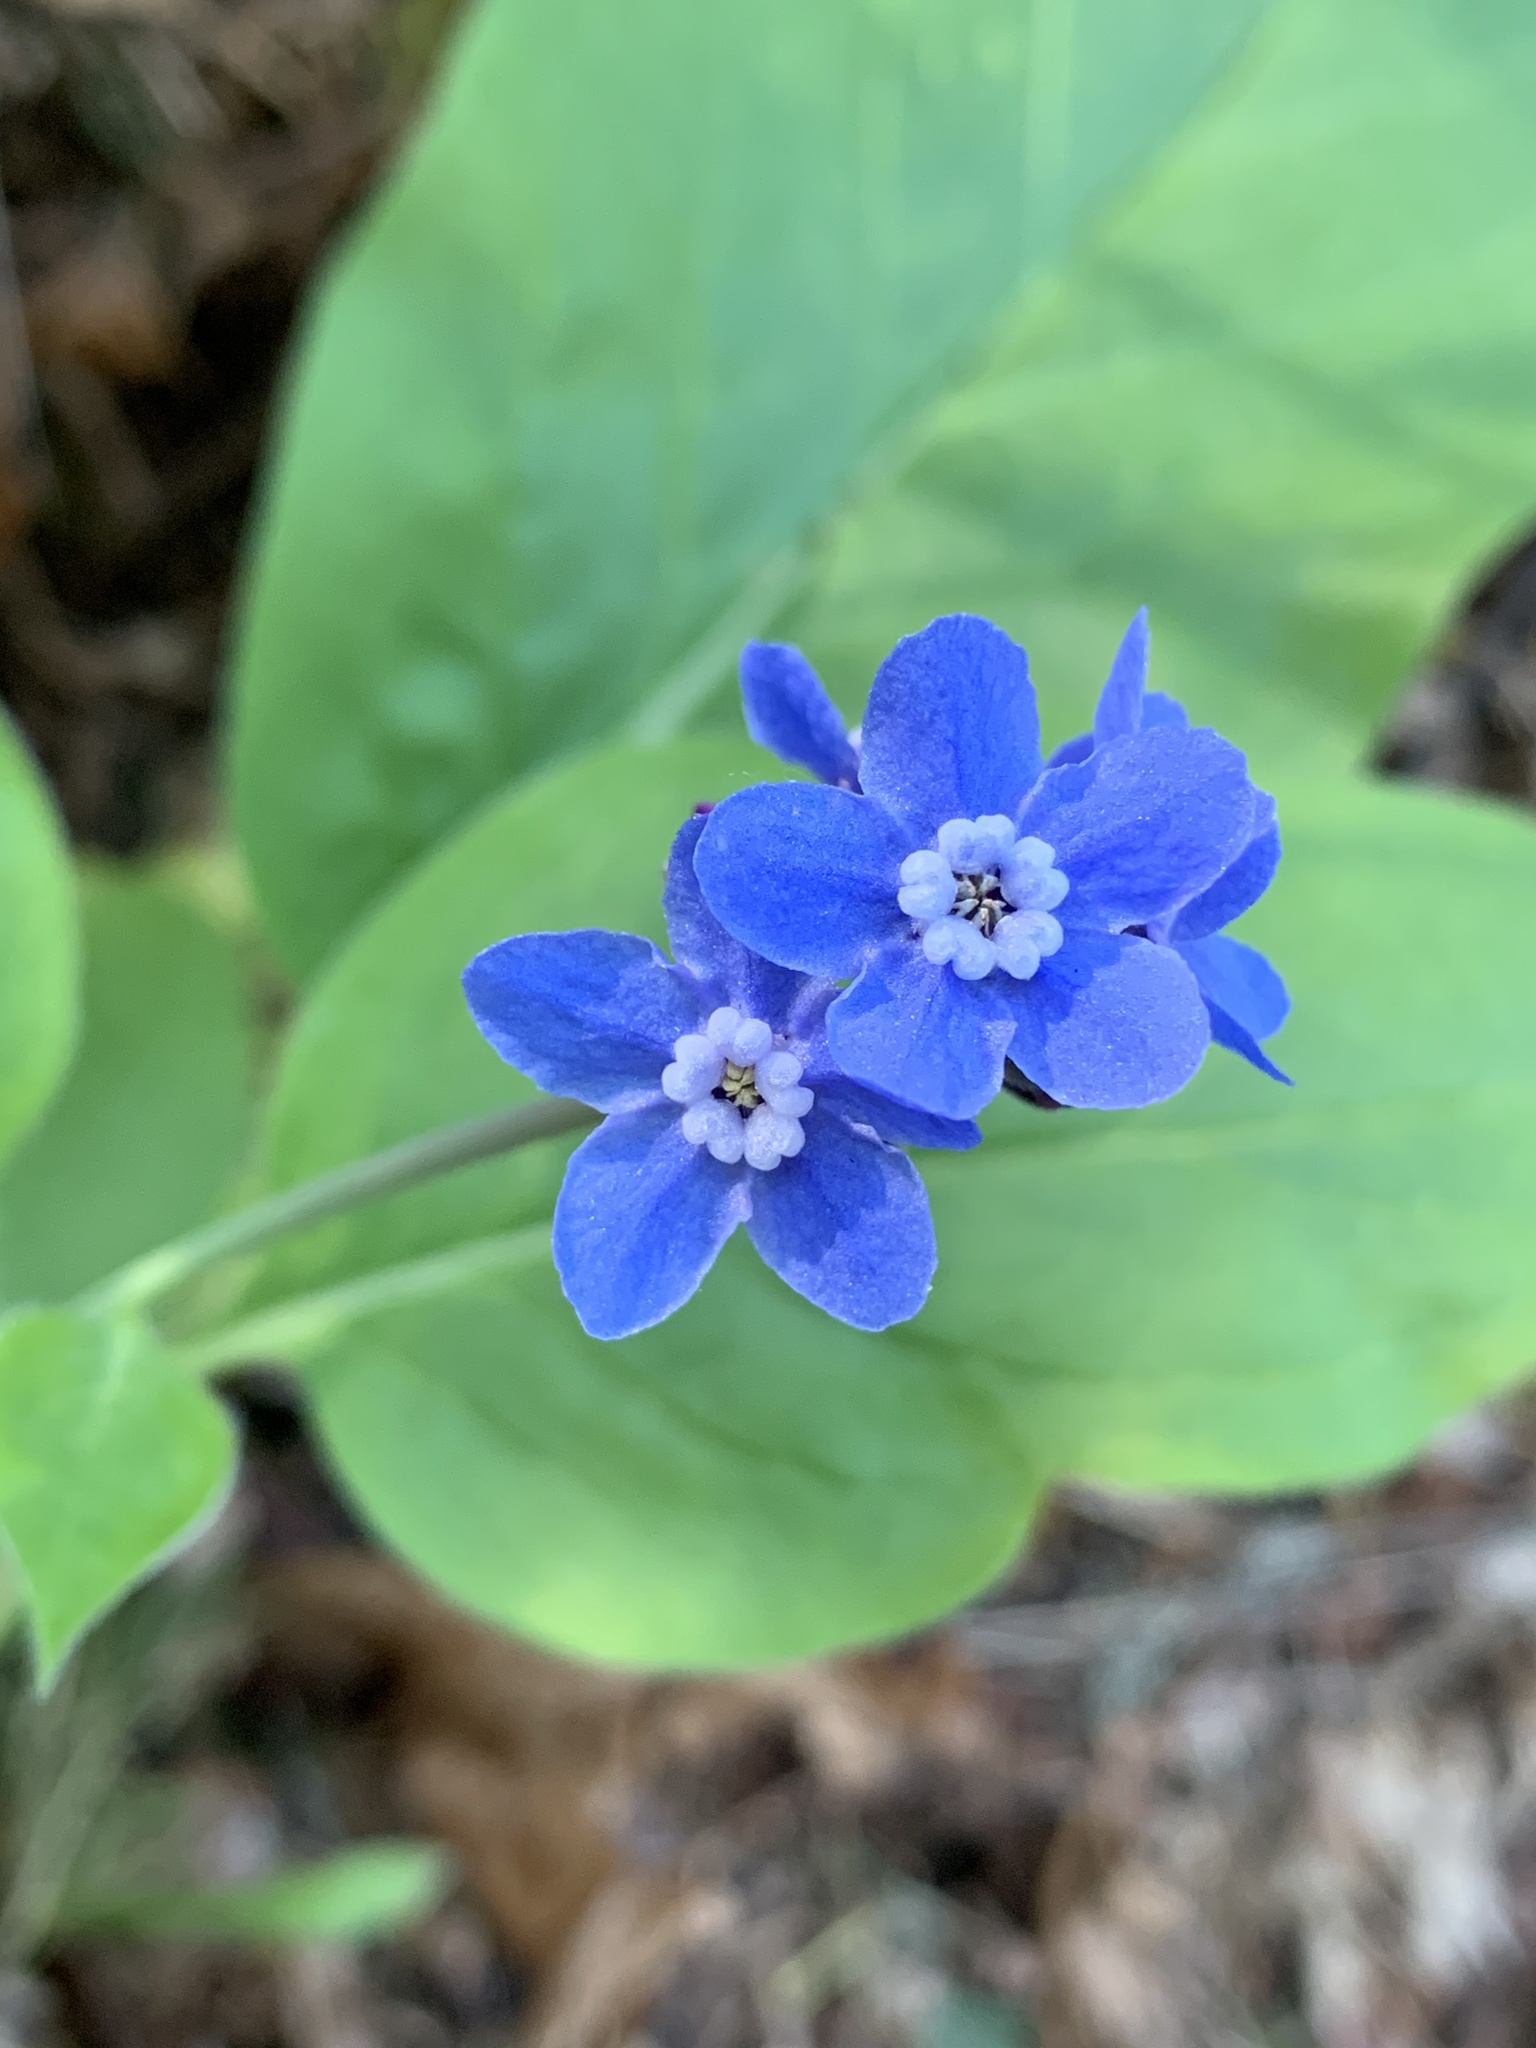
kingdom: Plantae
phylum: Tracheophyta
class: Magnoliopsida
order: Boraginales
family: Boraginaceae
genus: Adelinia
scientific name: Adelinia grande
